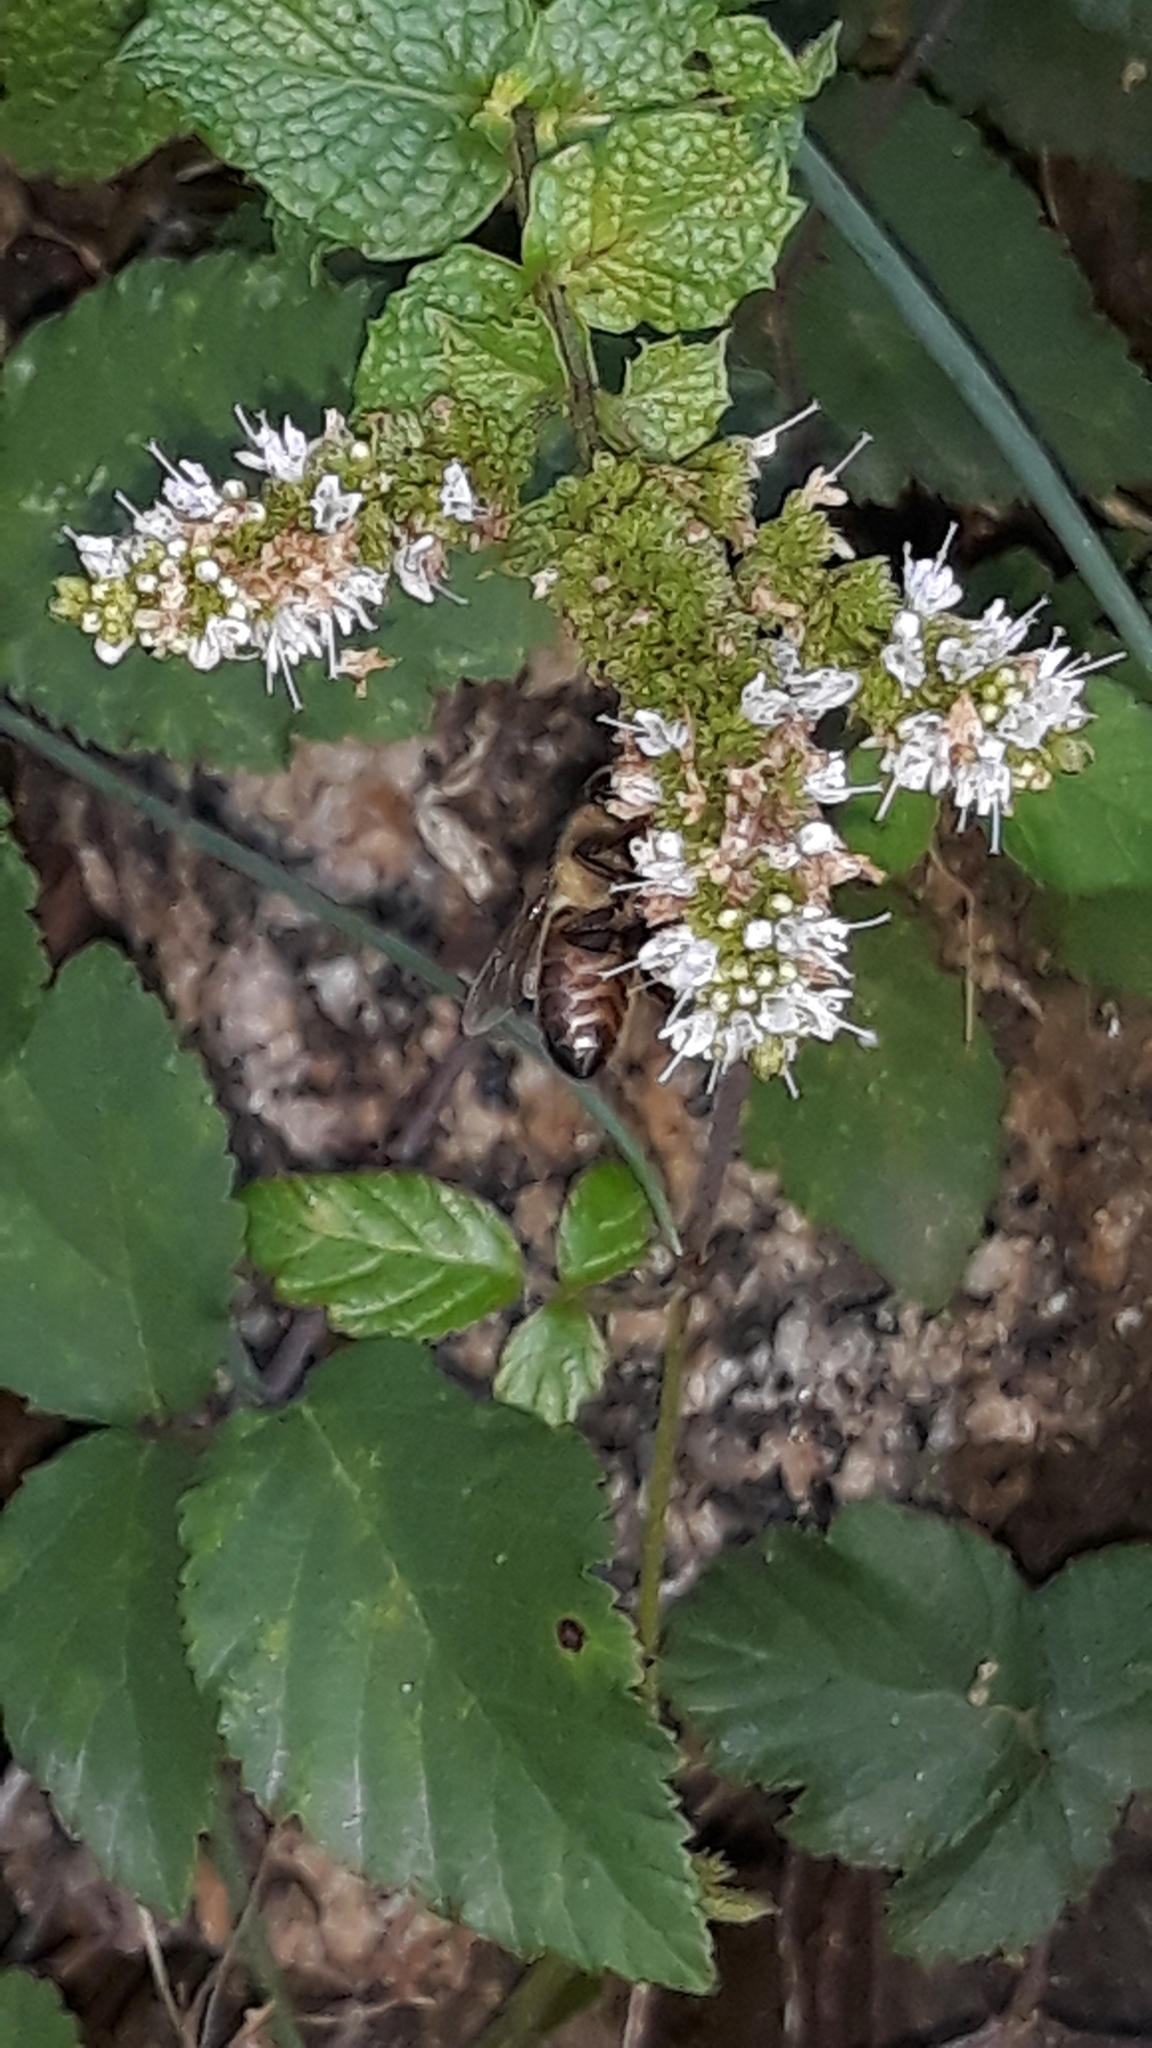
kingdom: Animalia
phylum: Arthropoda
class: Insecta
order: Hymenoptera
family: Apidae
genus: Apis
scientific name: Apis mellifera
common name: Honey bee
